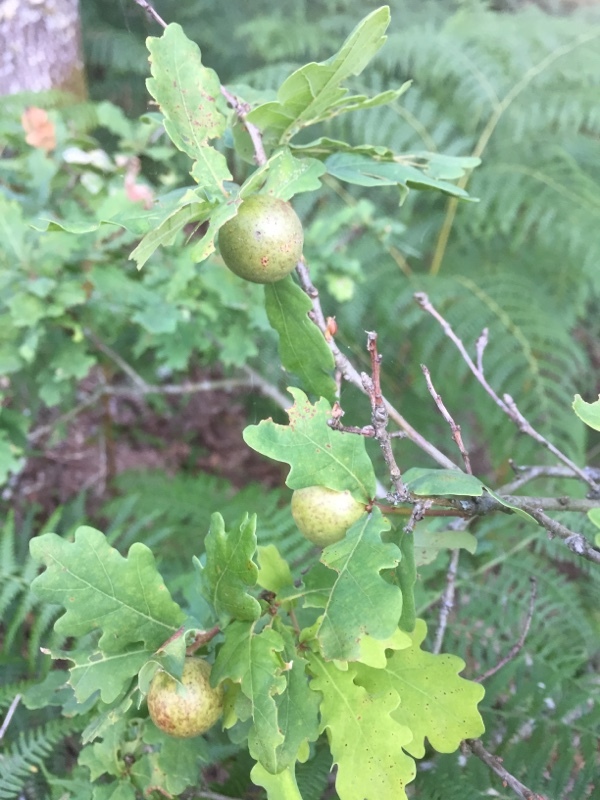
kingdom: Animalia
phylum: Arthropoda
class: Insecta
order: Hymenoptera
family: Cynipidae
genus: Andricus
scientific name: Andricus kollari
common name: Marble gall
